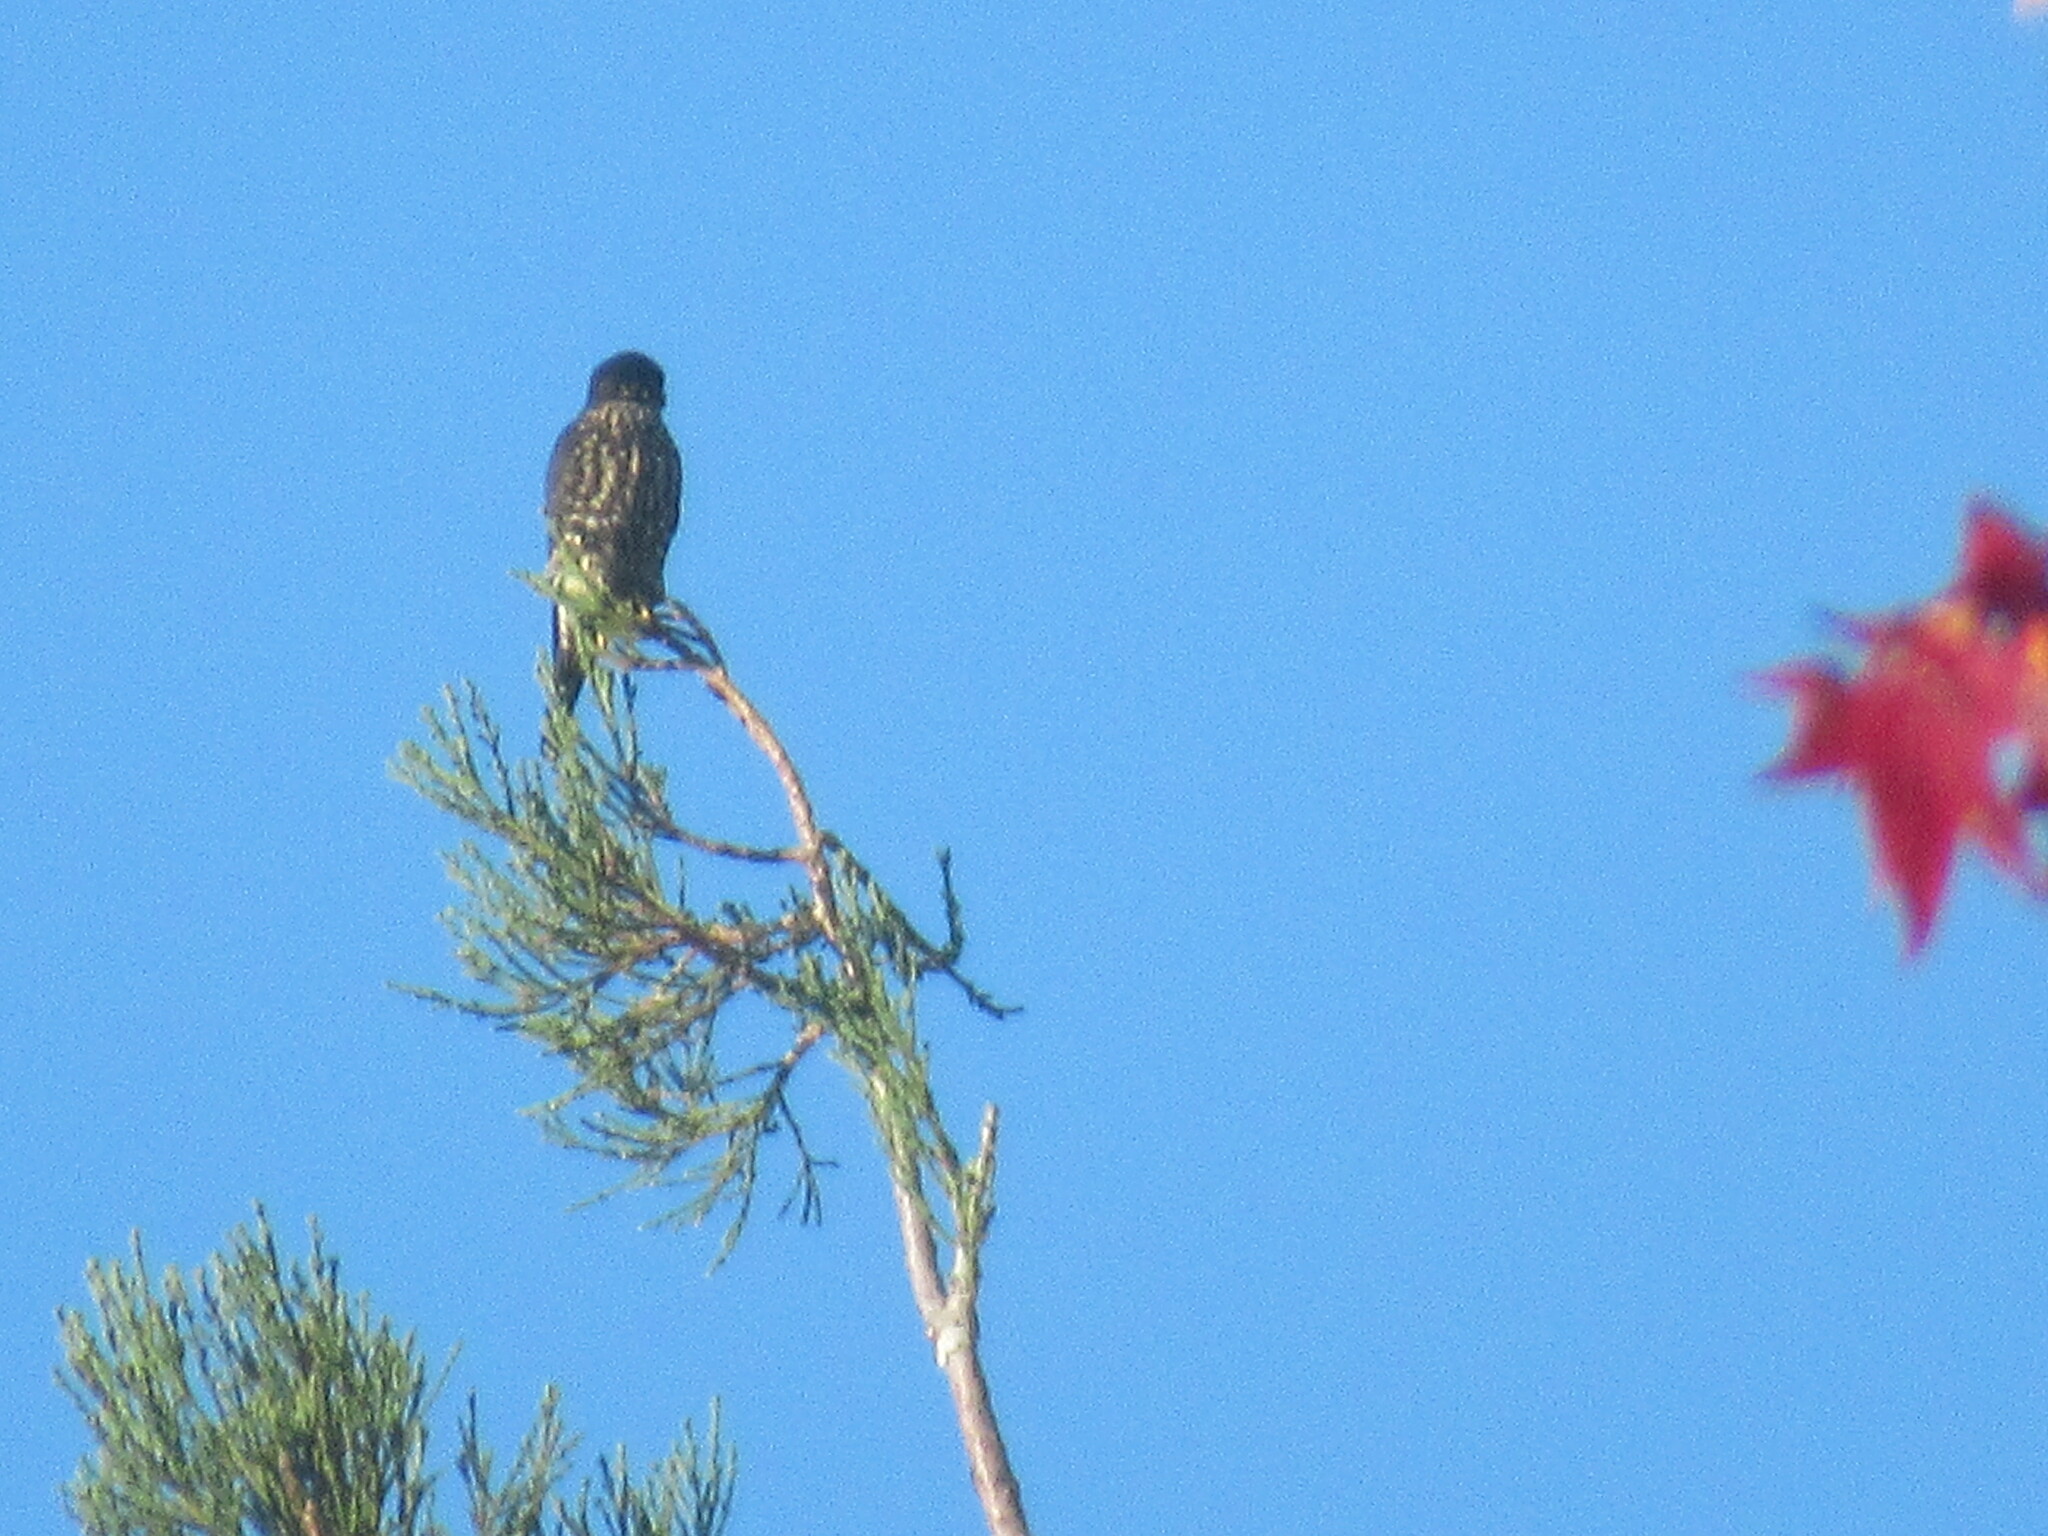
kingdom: Animalia
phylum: Chordata
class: Aves
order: Falconiformes
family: Falconidae
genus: Falco
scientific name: Falco columbarius
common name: Merlin
